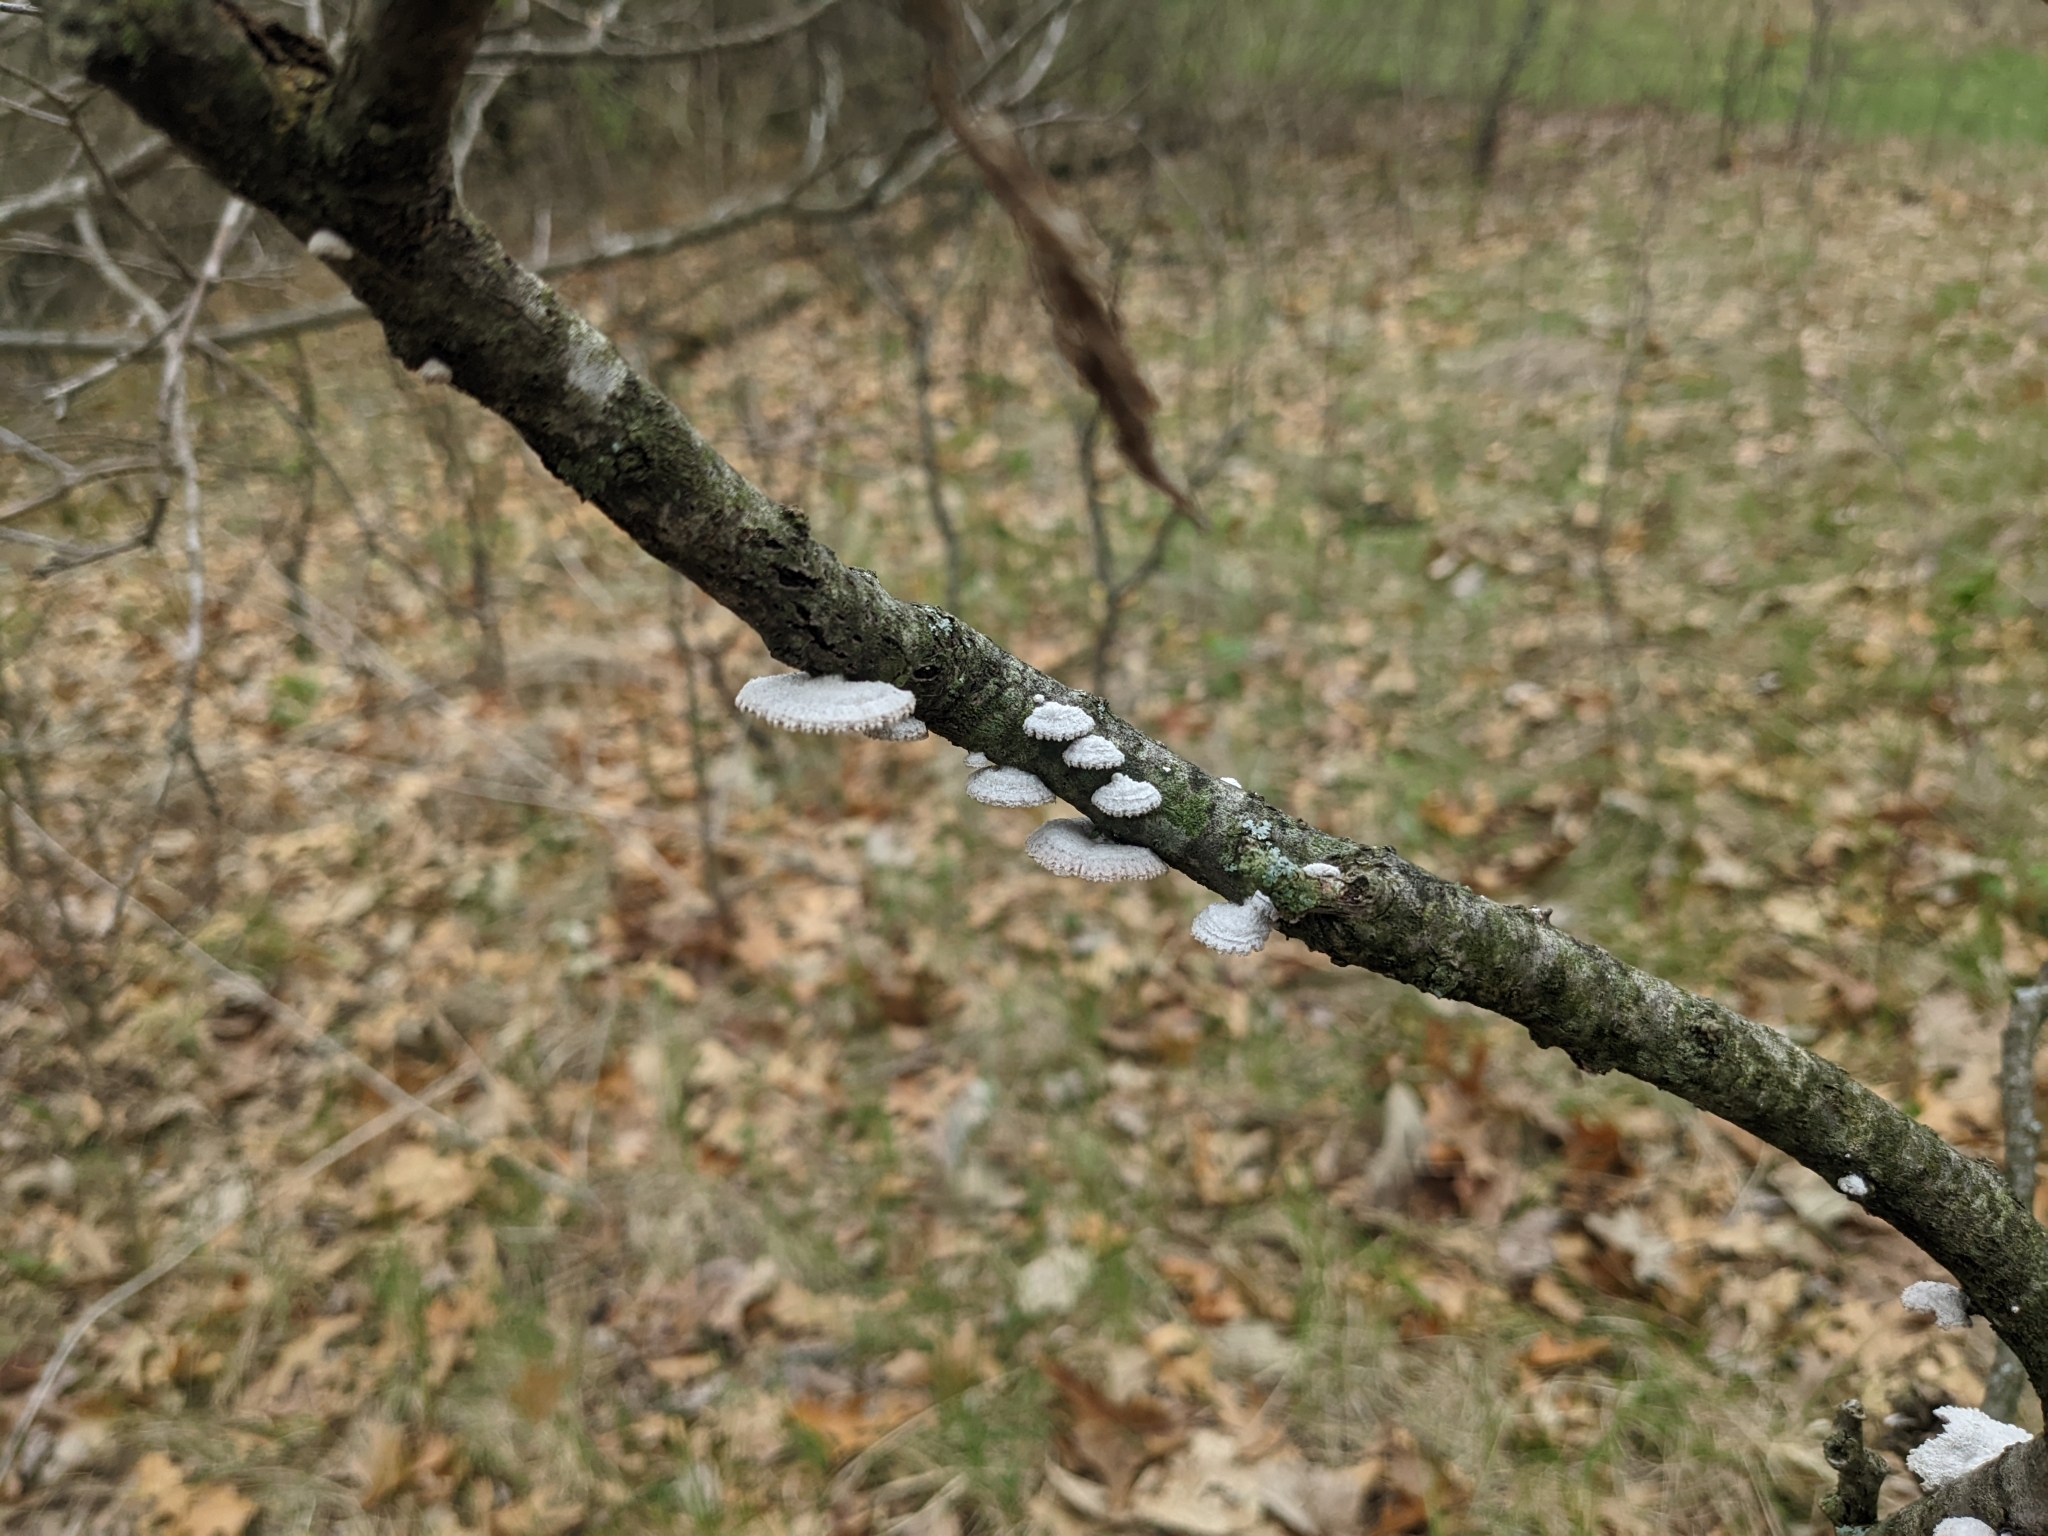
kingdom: Fungi
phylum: Basidiomycota
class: Agaricomycetes
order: Agaricales
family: Schizophyllaceae
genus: Schizophyllum
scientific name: Schizophyllum commune
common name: Common porecrust
